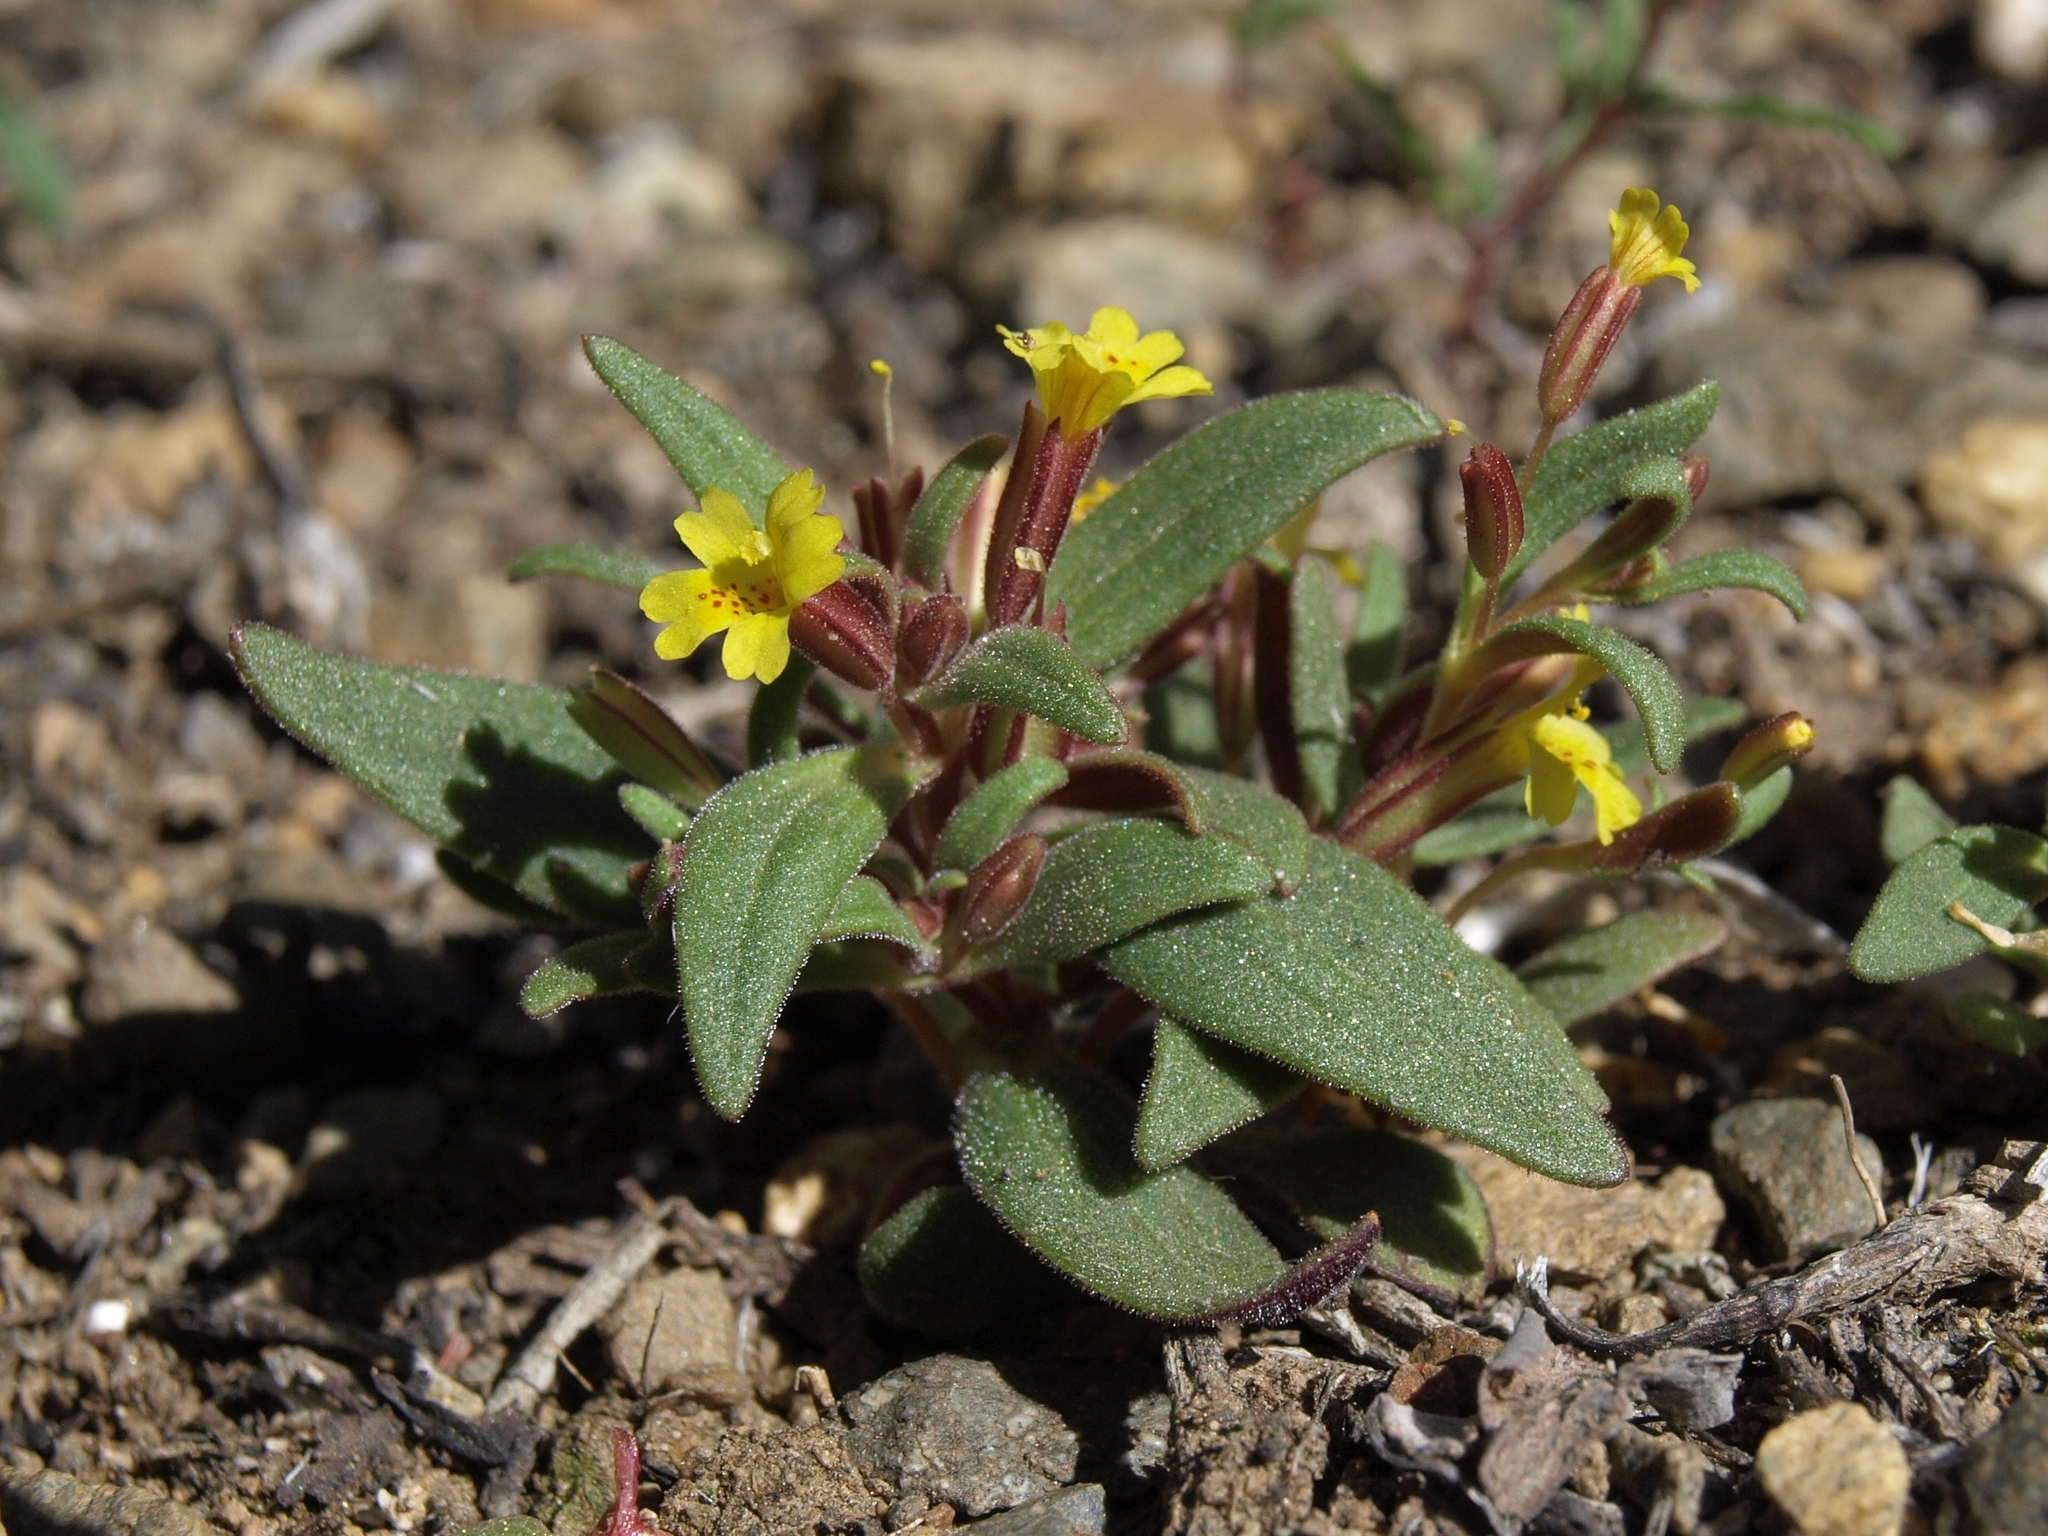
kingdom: Plantae
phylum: Tracheophyta
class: Magnoliopsida
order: Lamiales
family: Phrymaceae
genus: Erythranthe
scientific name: Erythranthe suksdorfii
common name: Suksdorf's monkeyflower
